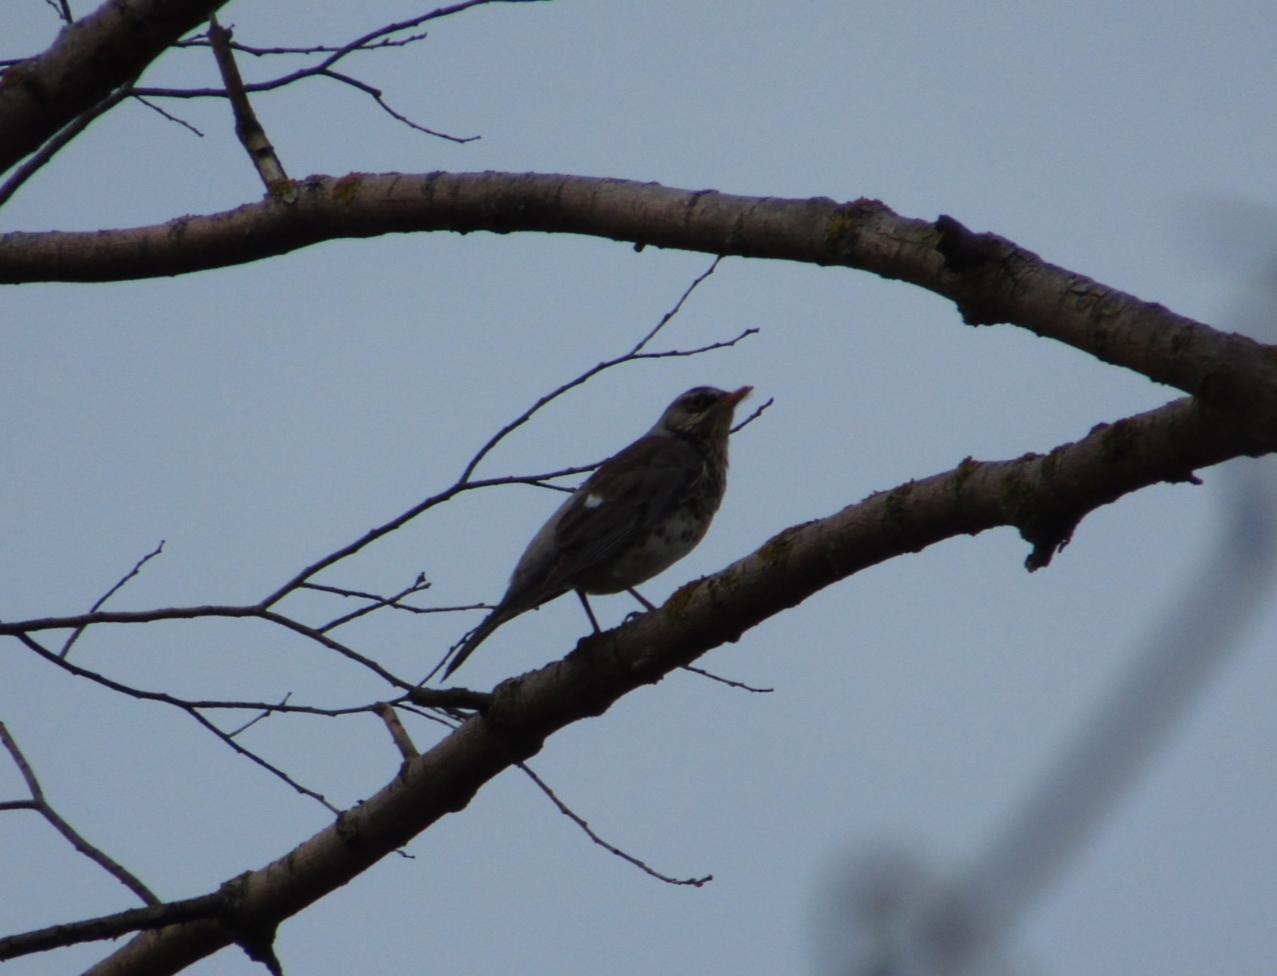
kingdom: Animalia
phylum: Chordata
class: Aves
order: Passeriformes
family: Turdidae
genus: Turdus
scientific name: Turdus pilaris
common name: Fieldfare
